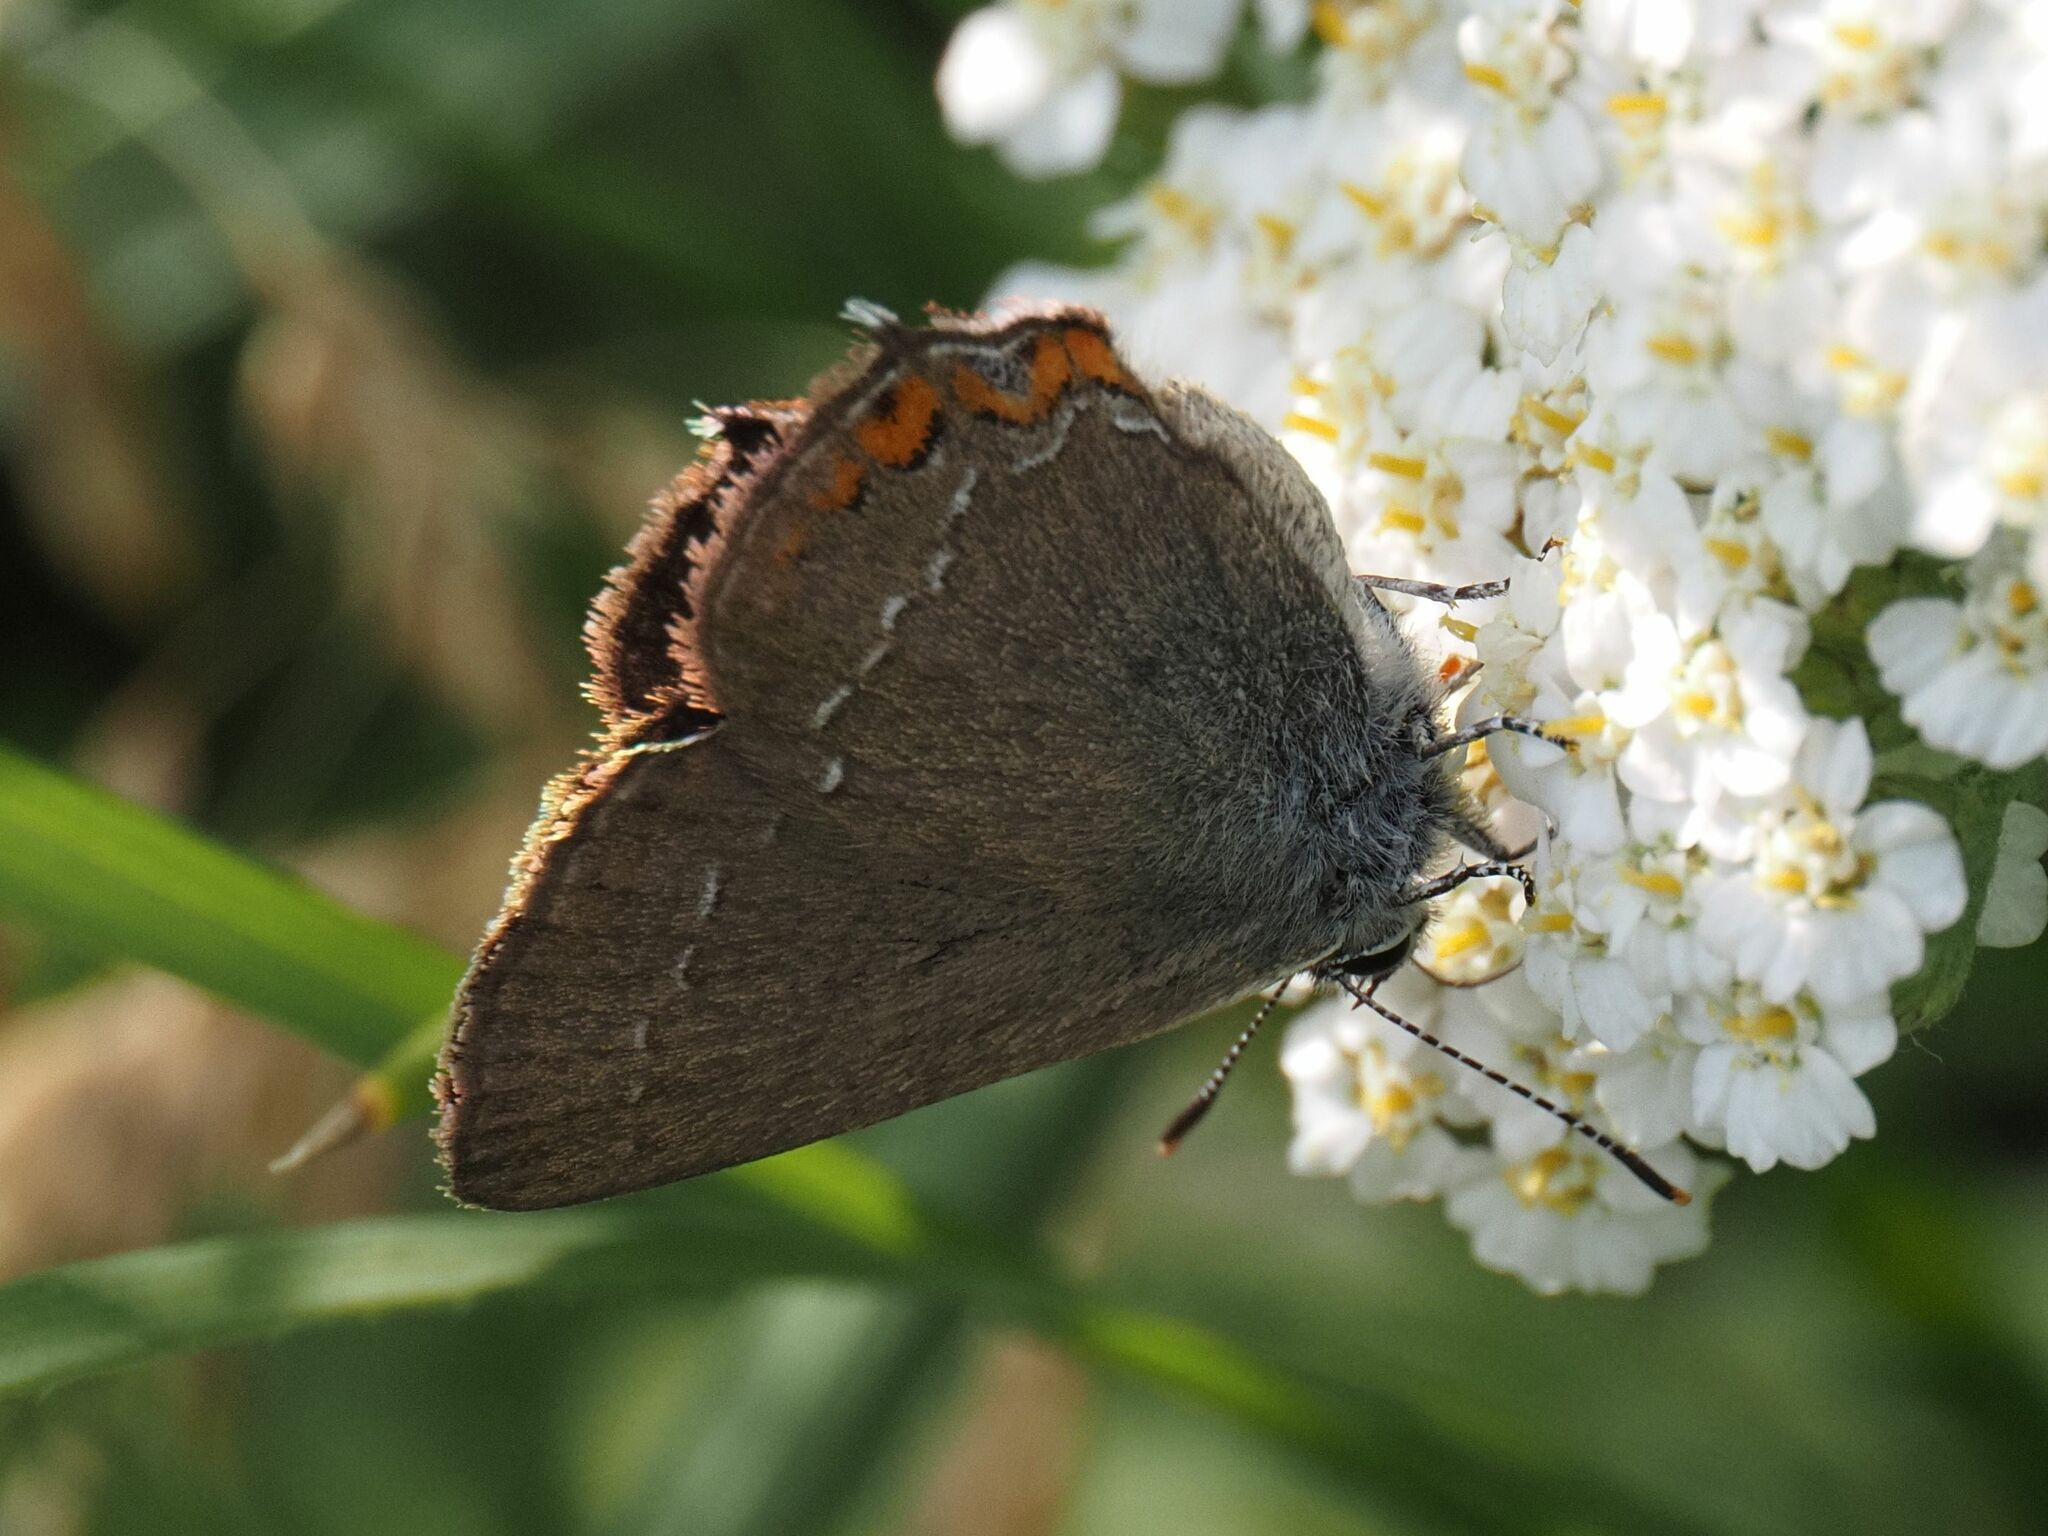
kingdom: Animalia
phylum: Arthropoda
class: Insecta
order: Lepidoptera
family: Lycaenidae
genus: Strymon
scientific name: Strymon acaciae
